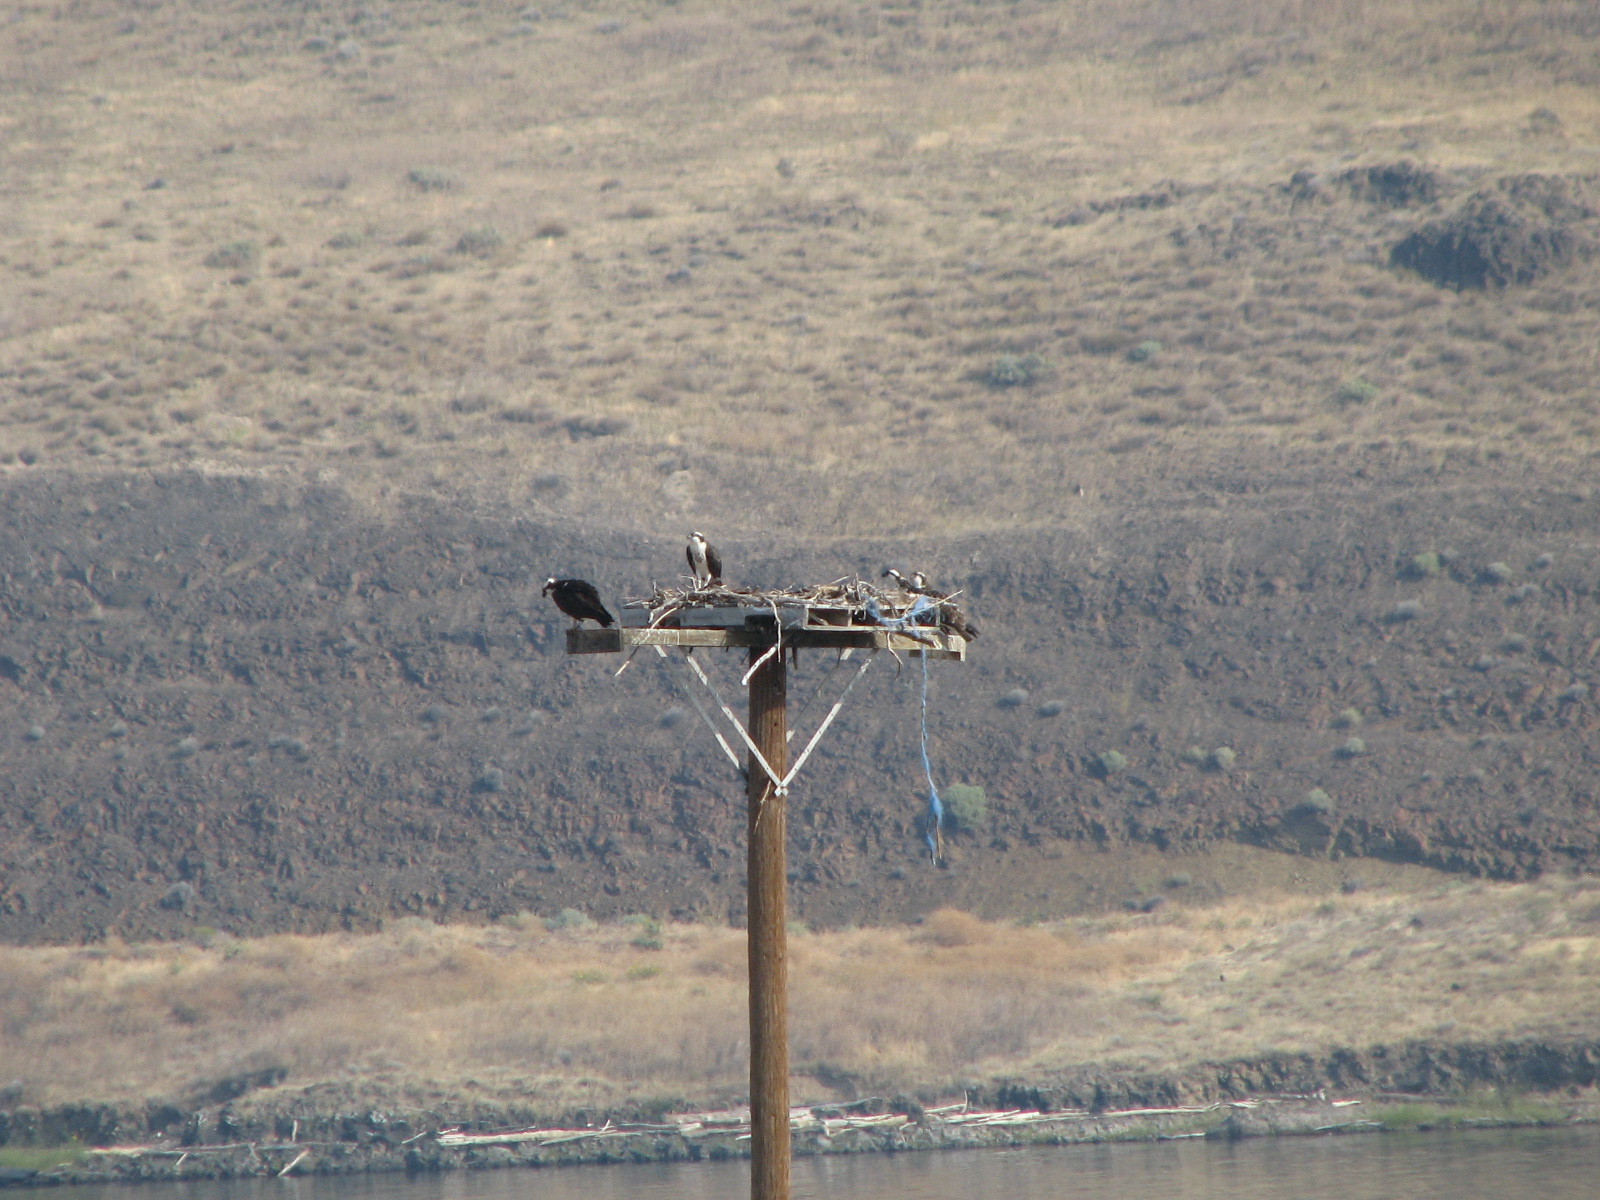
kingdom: Animalia
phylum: Chordata
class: Aves
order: Accipitriformes
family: Pandionidae
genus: Pandion
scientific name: Pandion haliaetus
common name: Osprey
